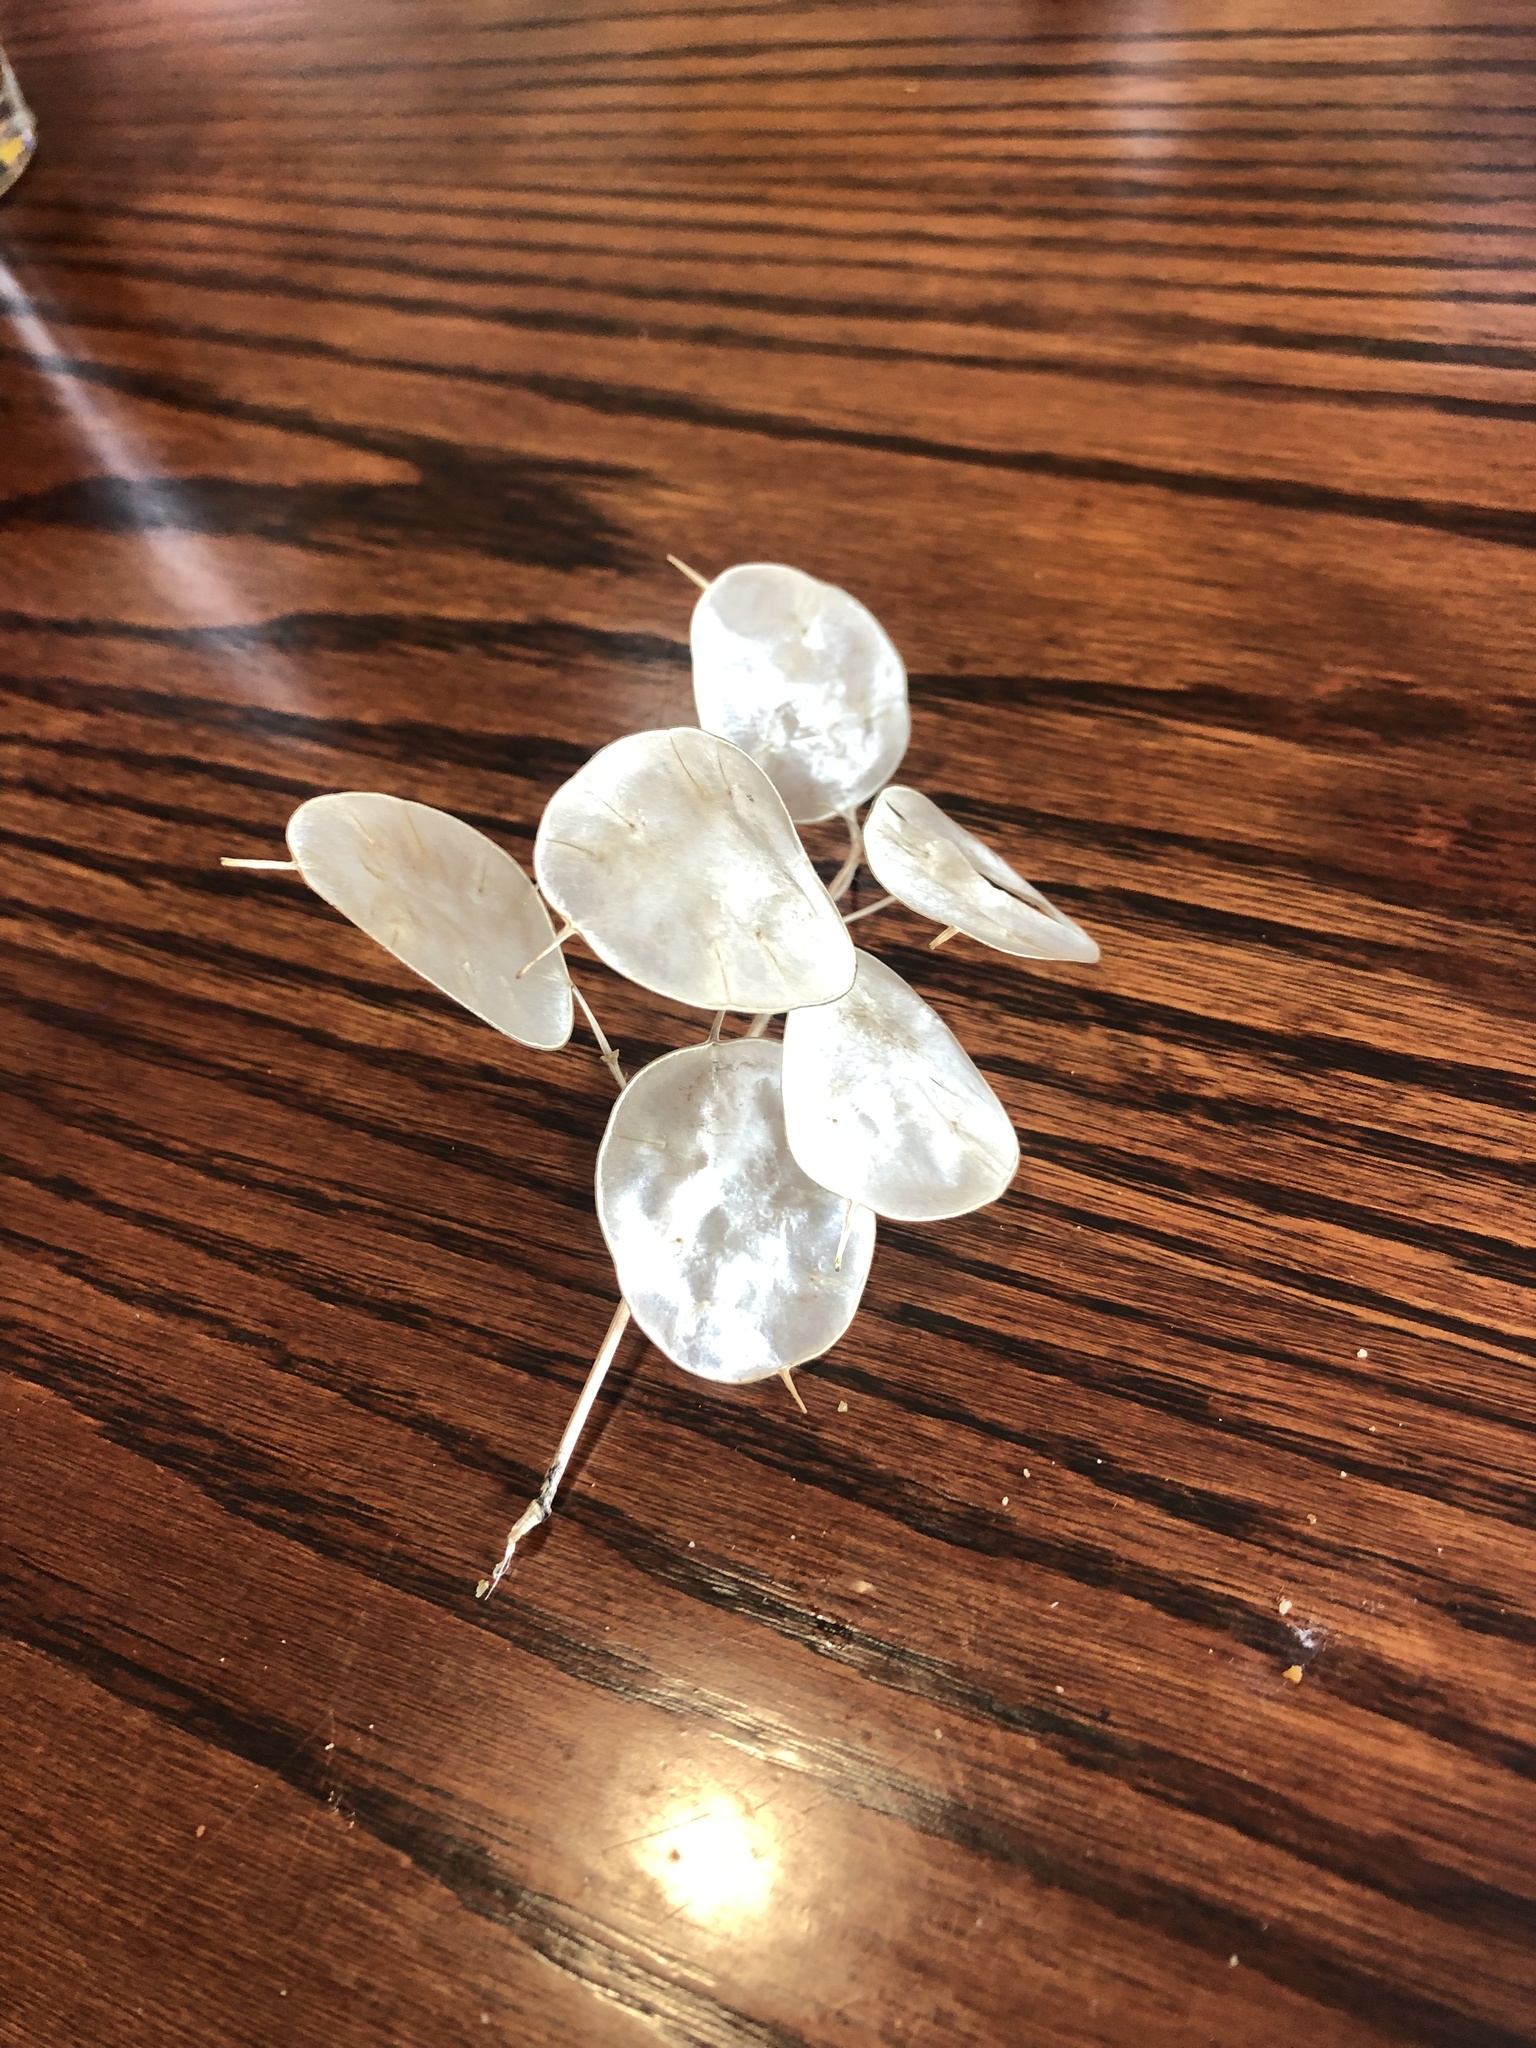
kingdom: Plantae
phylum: Tracheophyta
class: Magnoliopsida
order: Brassicales
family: Brassicaceae
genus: Lunaria
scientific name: Lunaria annua
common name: Honesty
